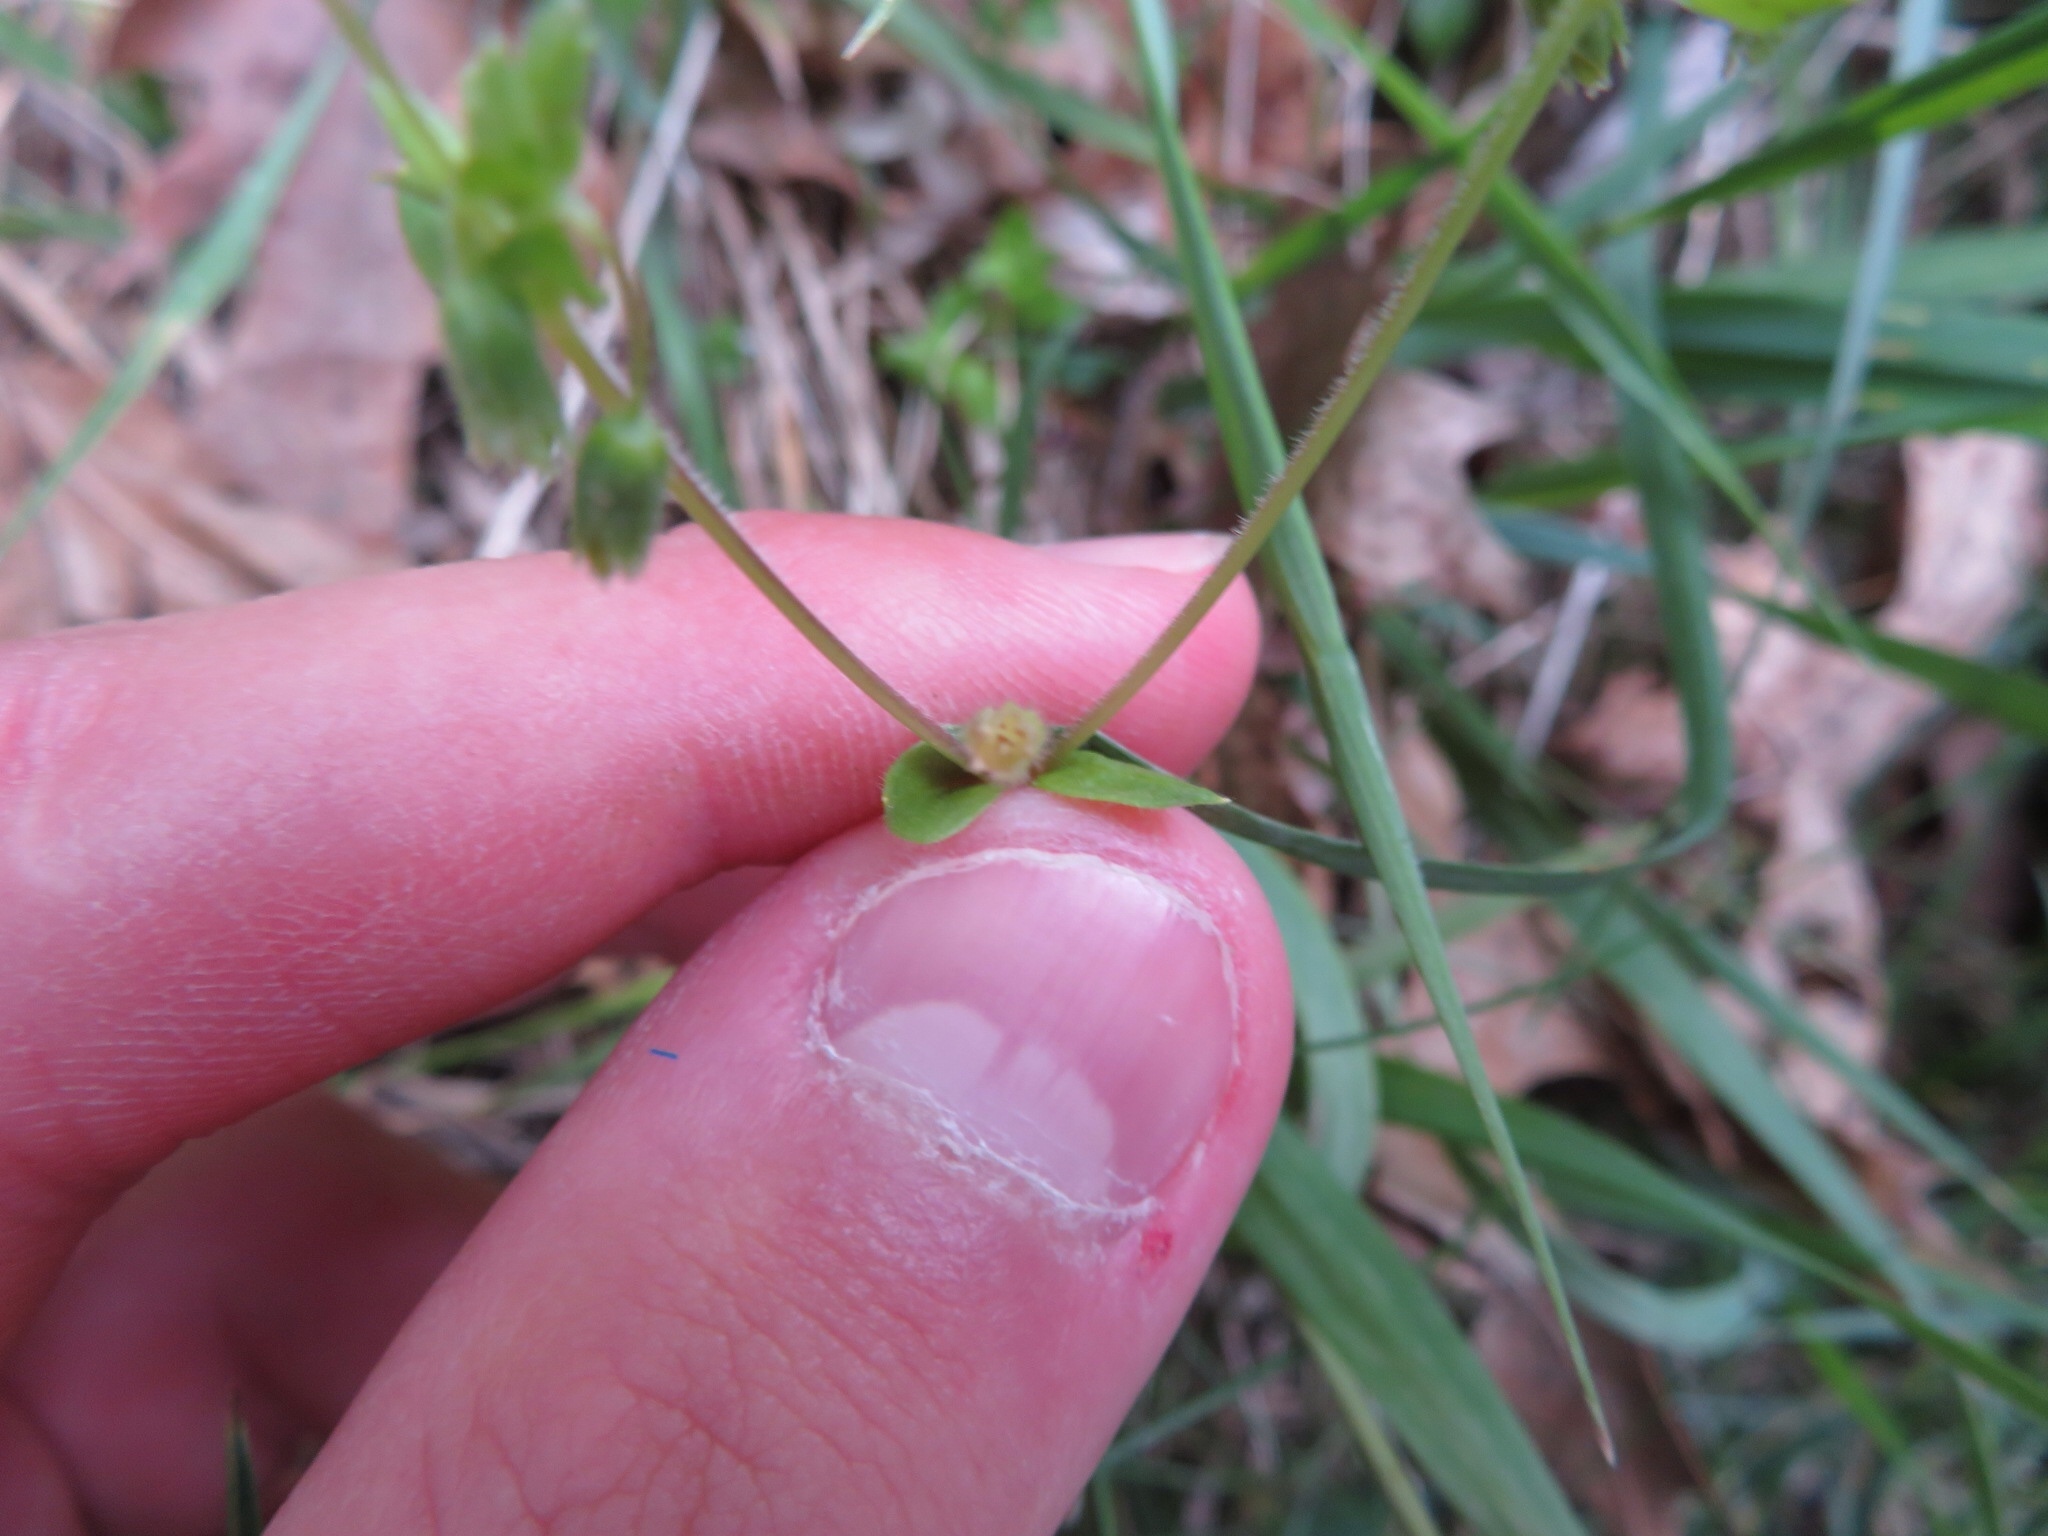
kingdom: Plantae
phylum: Tracheophyta
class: Magnoliopsida
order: Caryophyllales
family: Caryophyllaceae
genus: Arenaria
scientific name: Arenaria serpyllifolia
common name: Thyme-leaved sandwort
